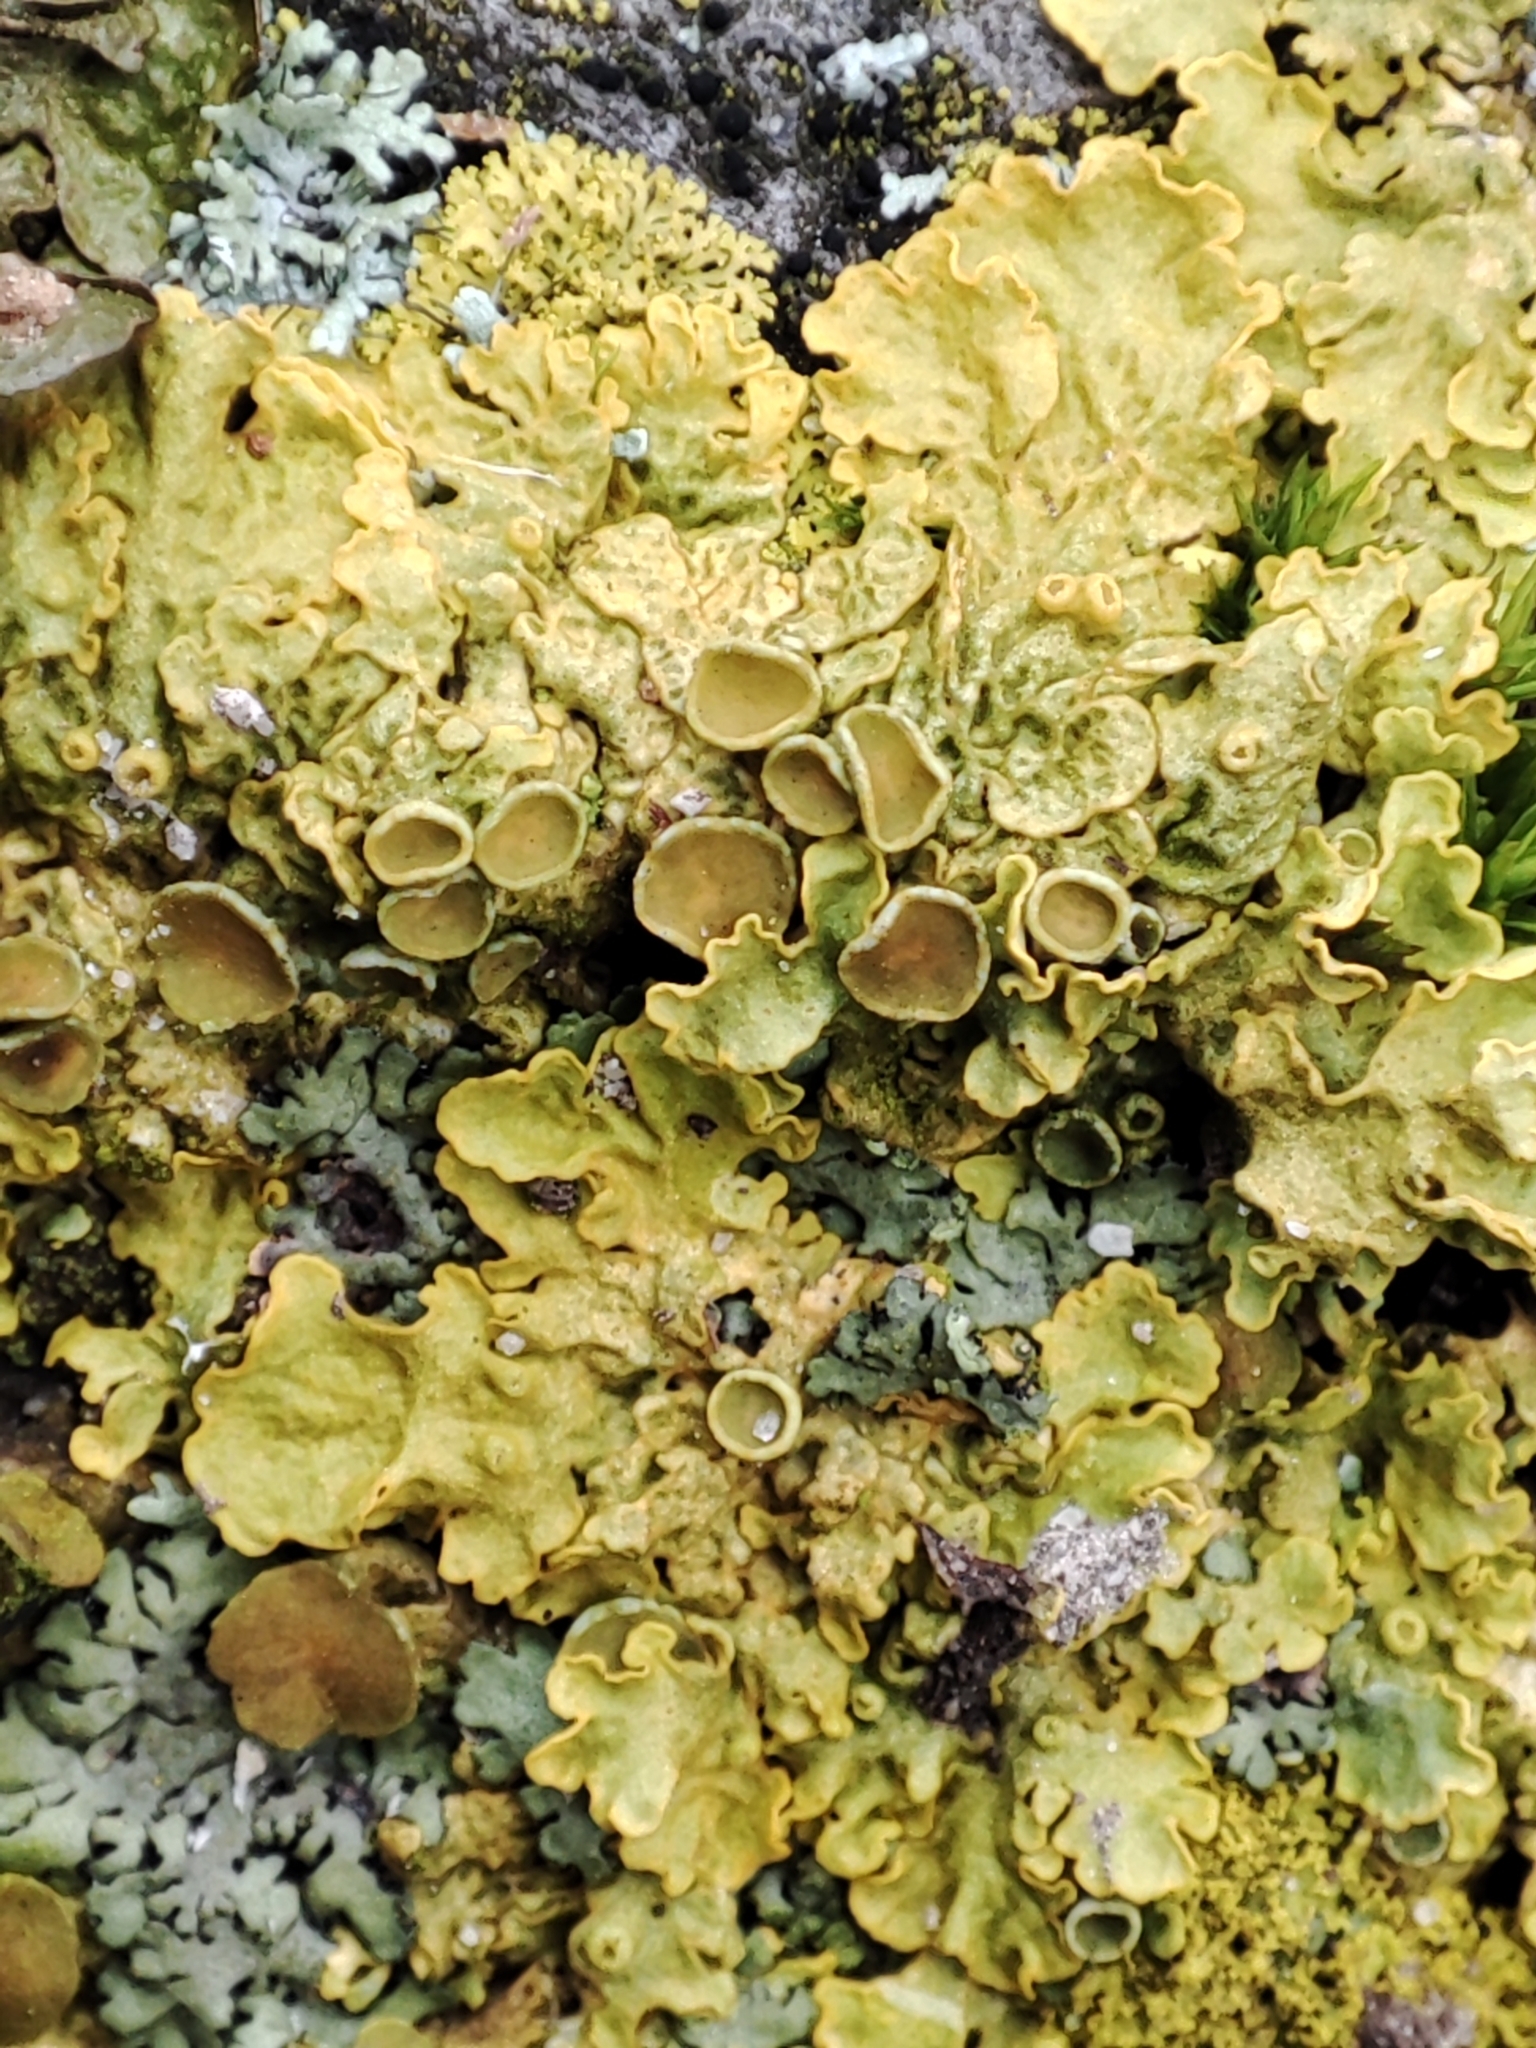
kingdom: Fungi
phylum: Ascomycota
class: Lecanoromycetes
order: Teloschistales
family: Teloschistaceae
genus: Xanthoria
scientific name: Xanthoria parietina
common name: Common orange lichen
